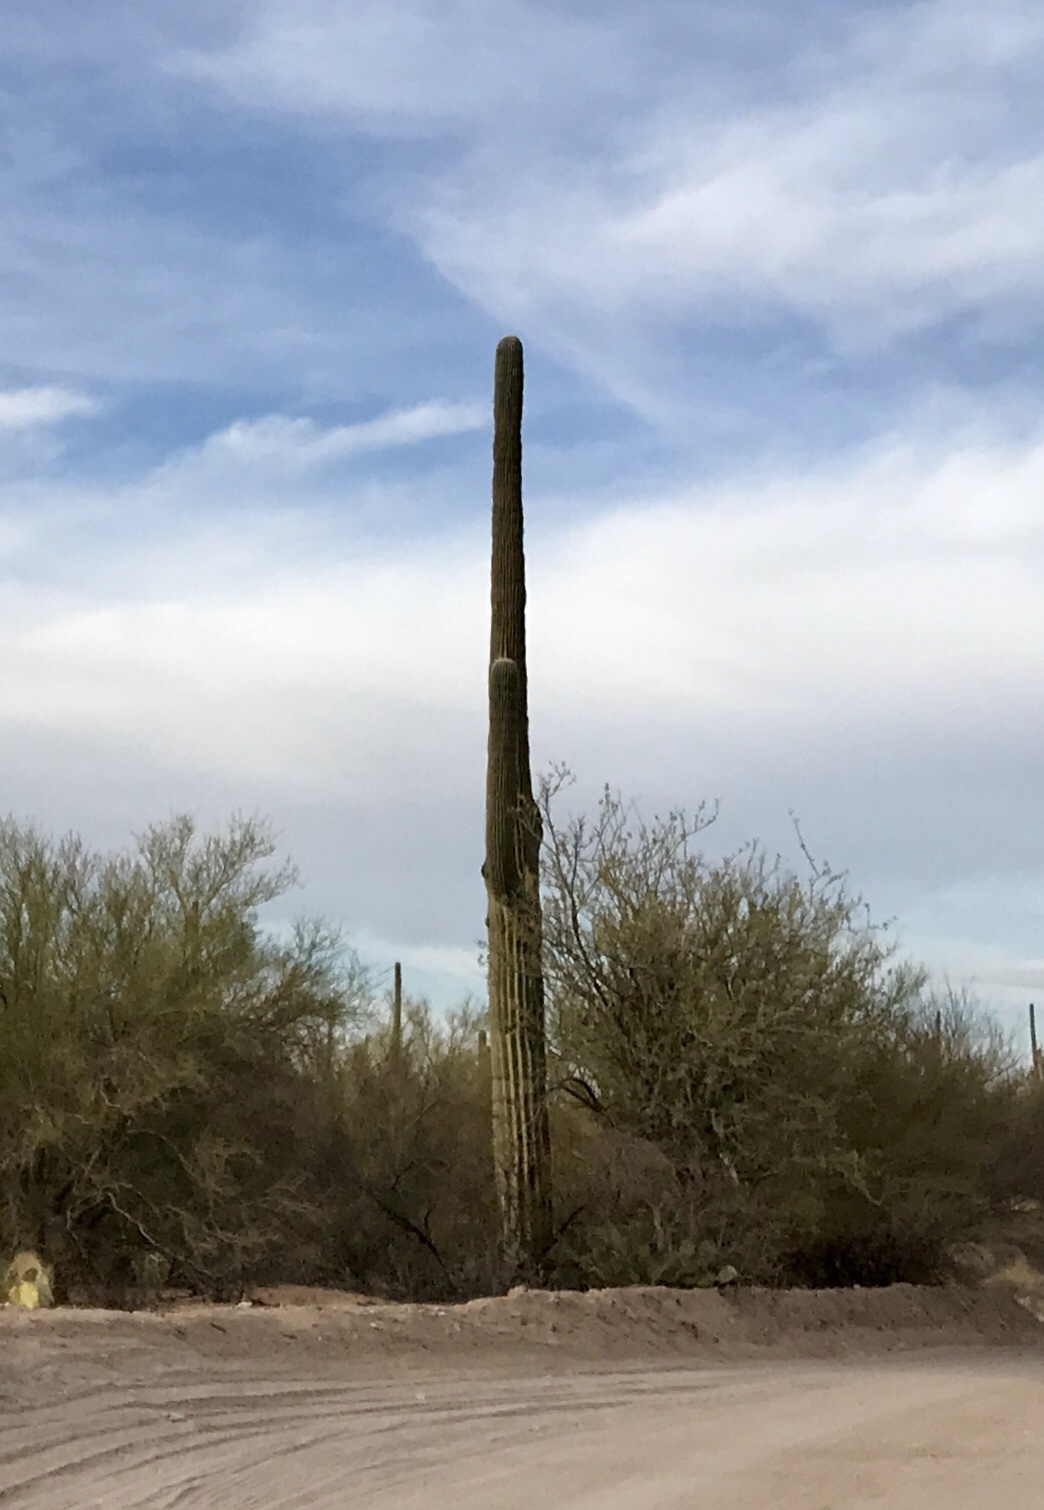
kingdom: Plantae
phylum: Tracheophyta
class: Magnoliopsida
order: Caryophyllales
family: Cactaceae
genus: Carnegiea
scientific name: Carnegiea gigantea
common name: Saguaro
